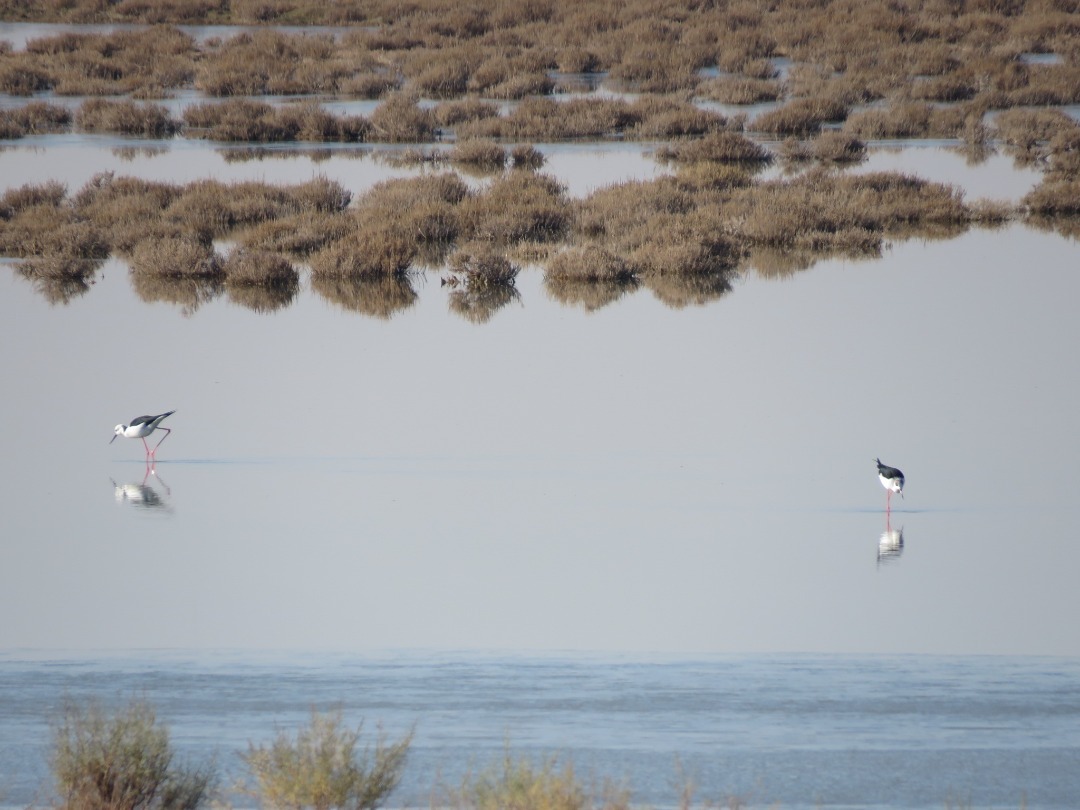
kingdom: Animalia
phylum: Chordata
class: Aves
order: Charadriiformes
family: Recurvirostridae
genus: Himantopus
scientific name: Himantopus himantopus
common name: Black-winged stilt
